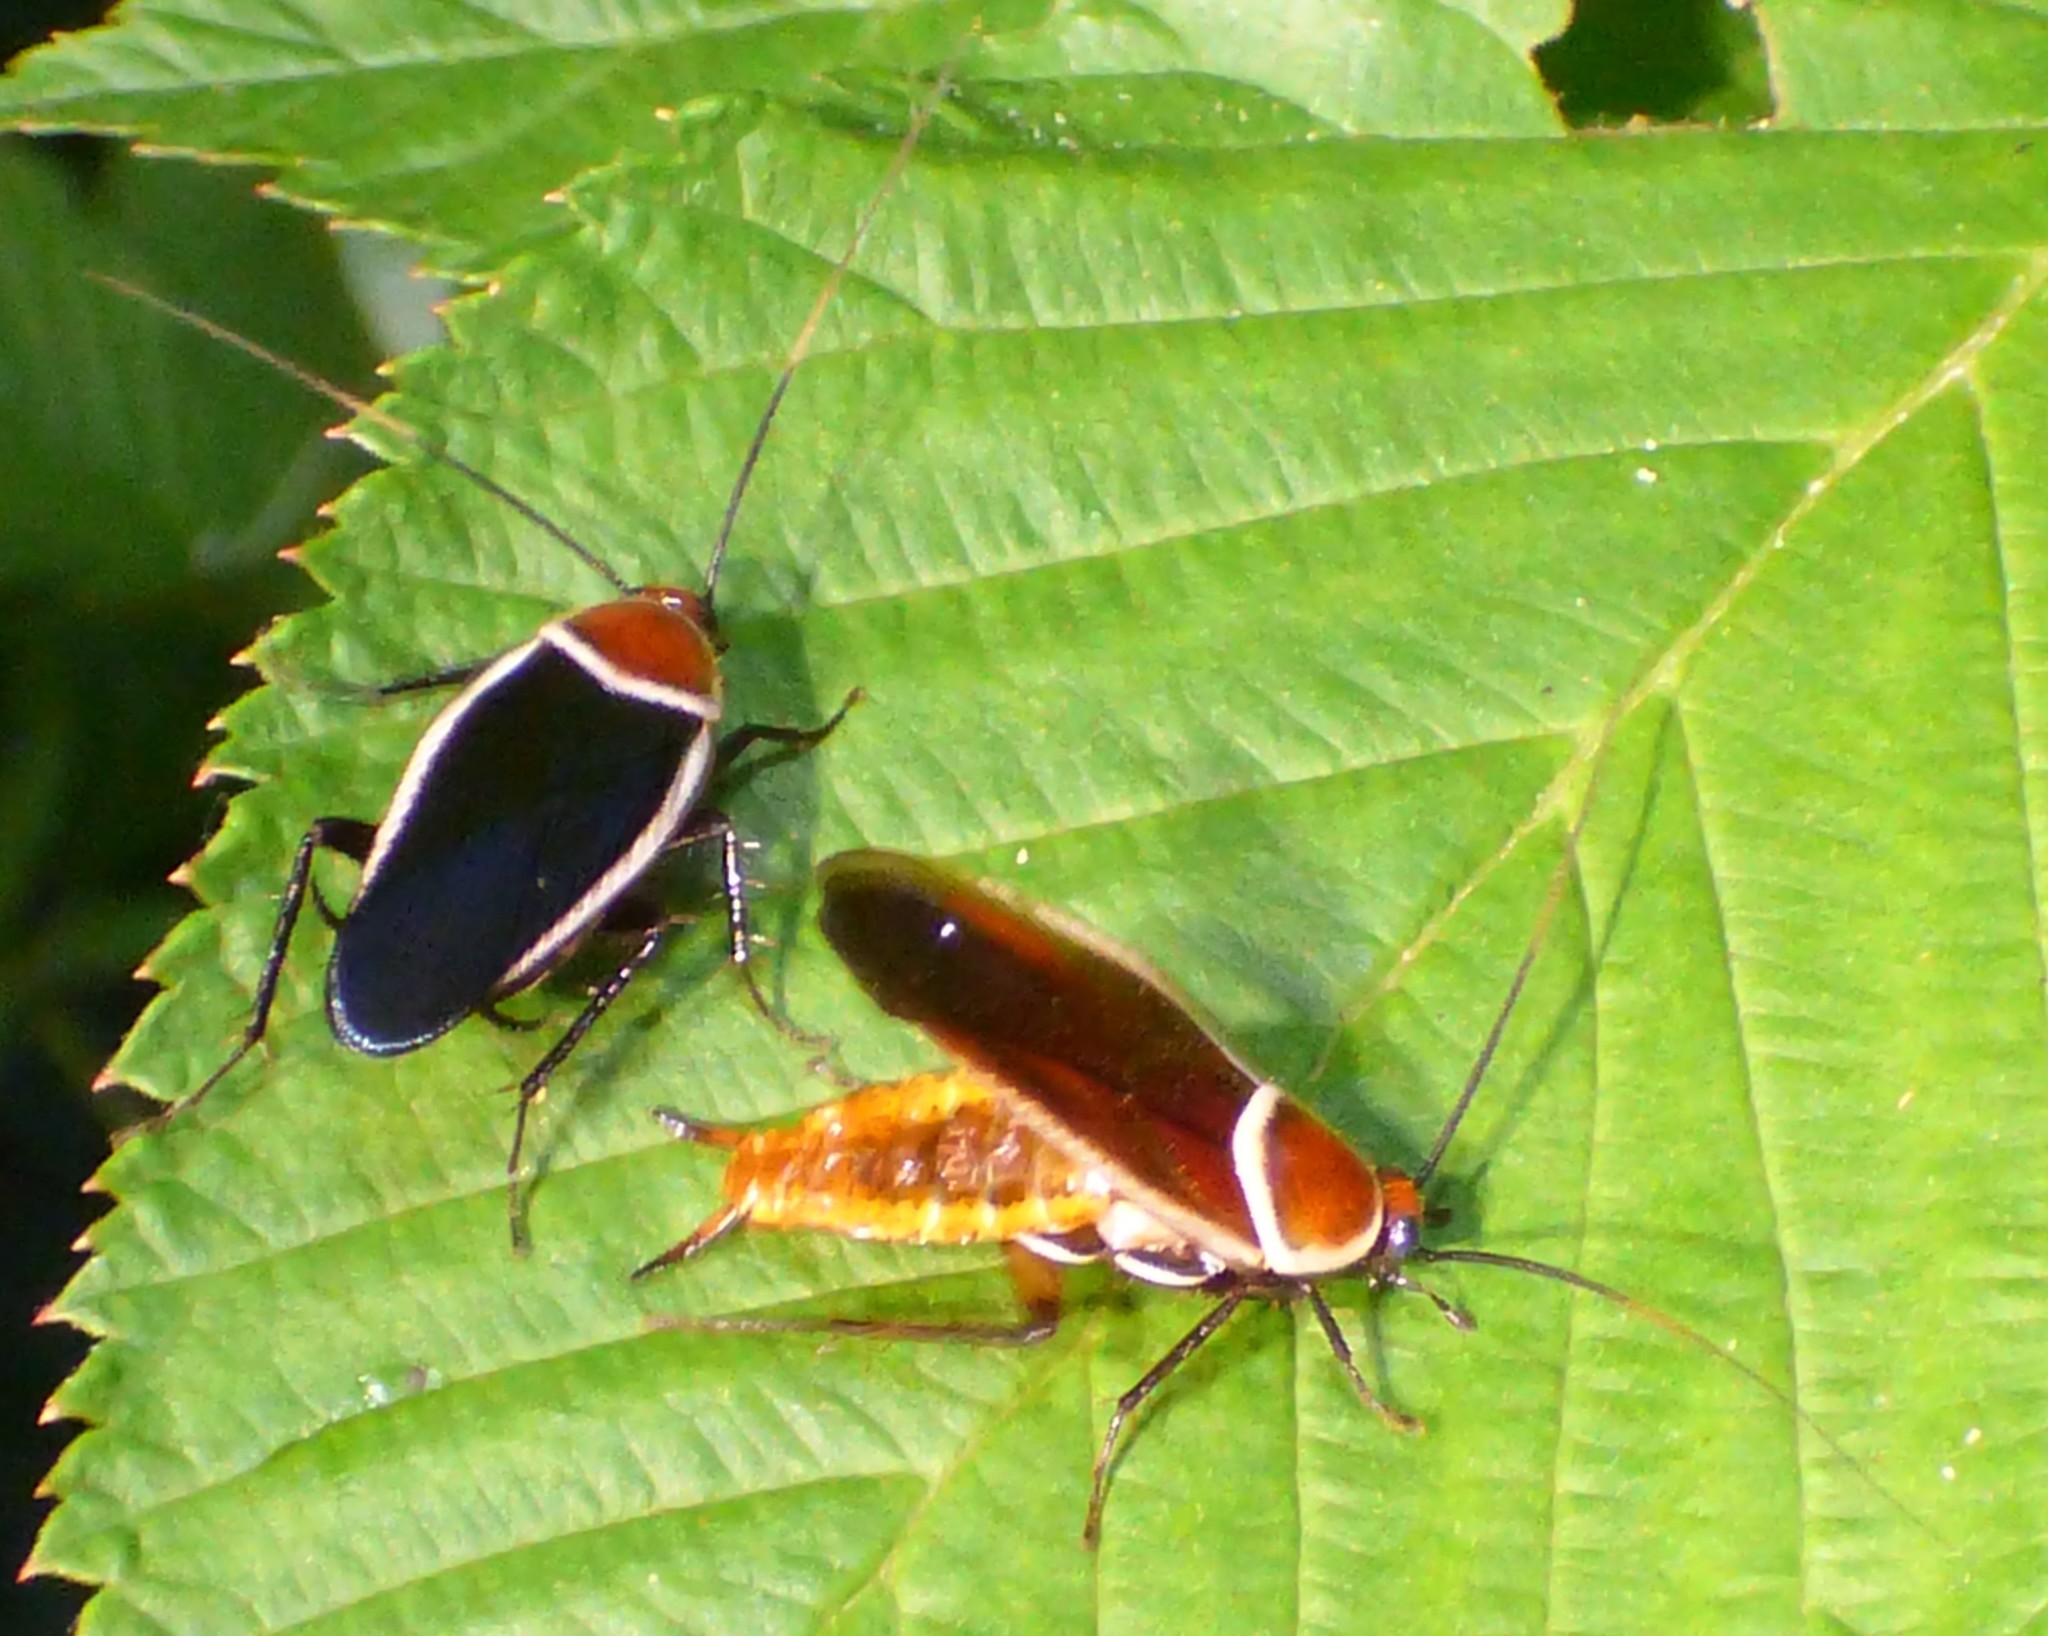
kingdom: Animalia
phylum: Arthropoda
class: Insecta
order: Blattodea
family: Ectobiidae
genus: Pseudomops
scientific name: Pseudomops septentrionalis
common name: Pale-bordered field cockroach
